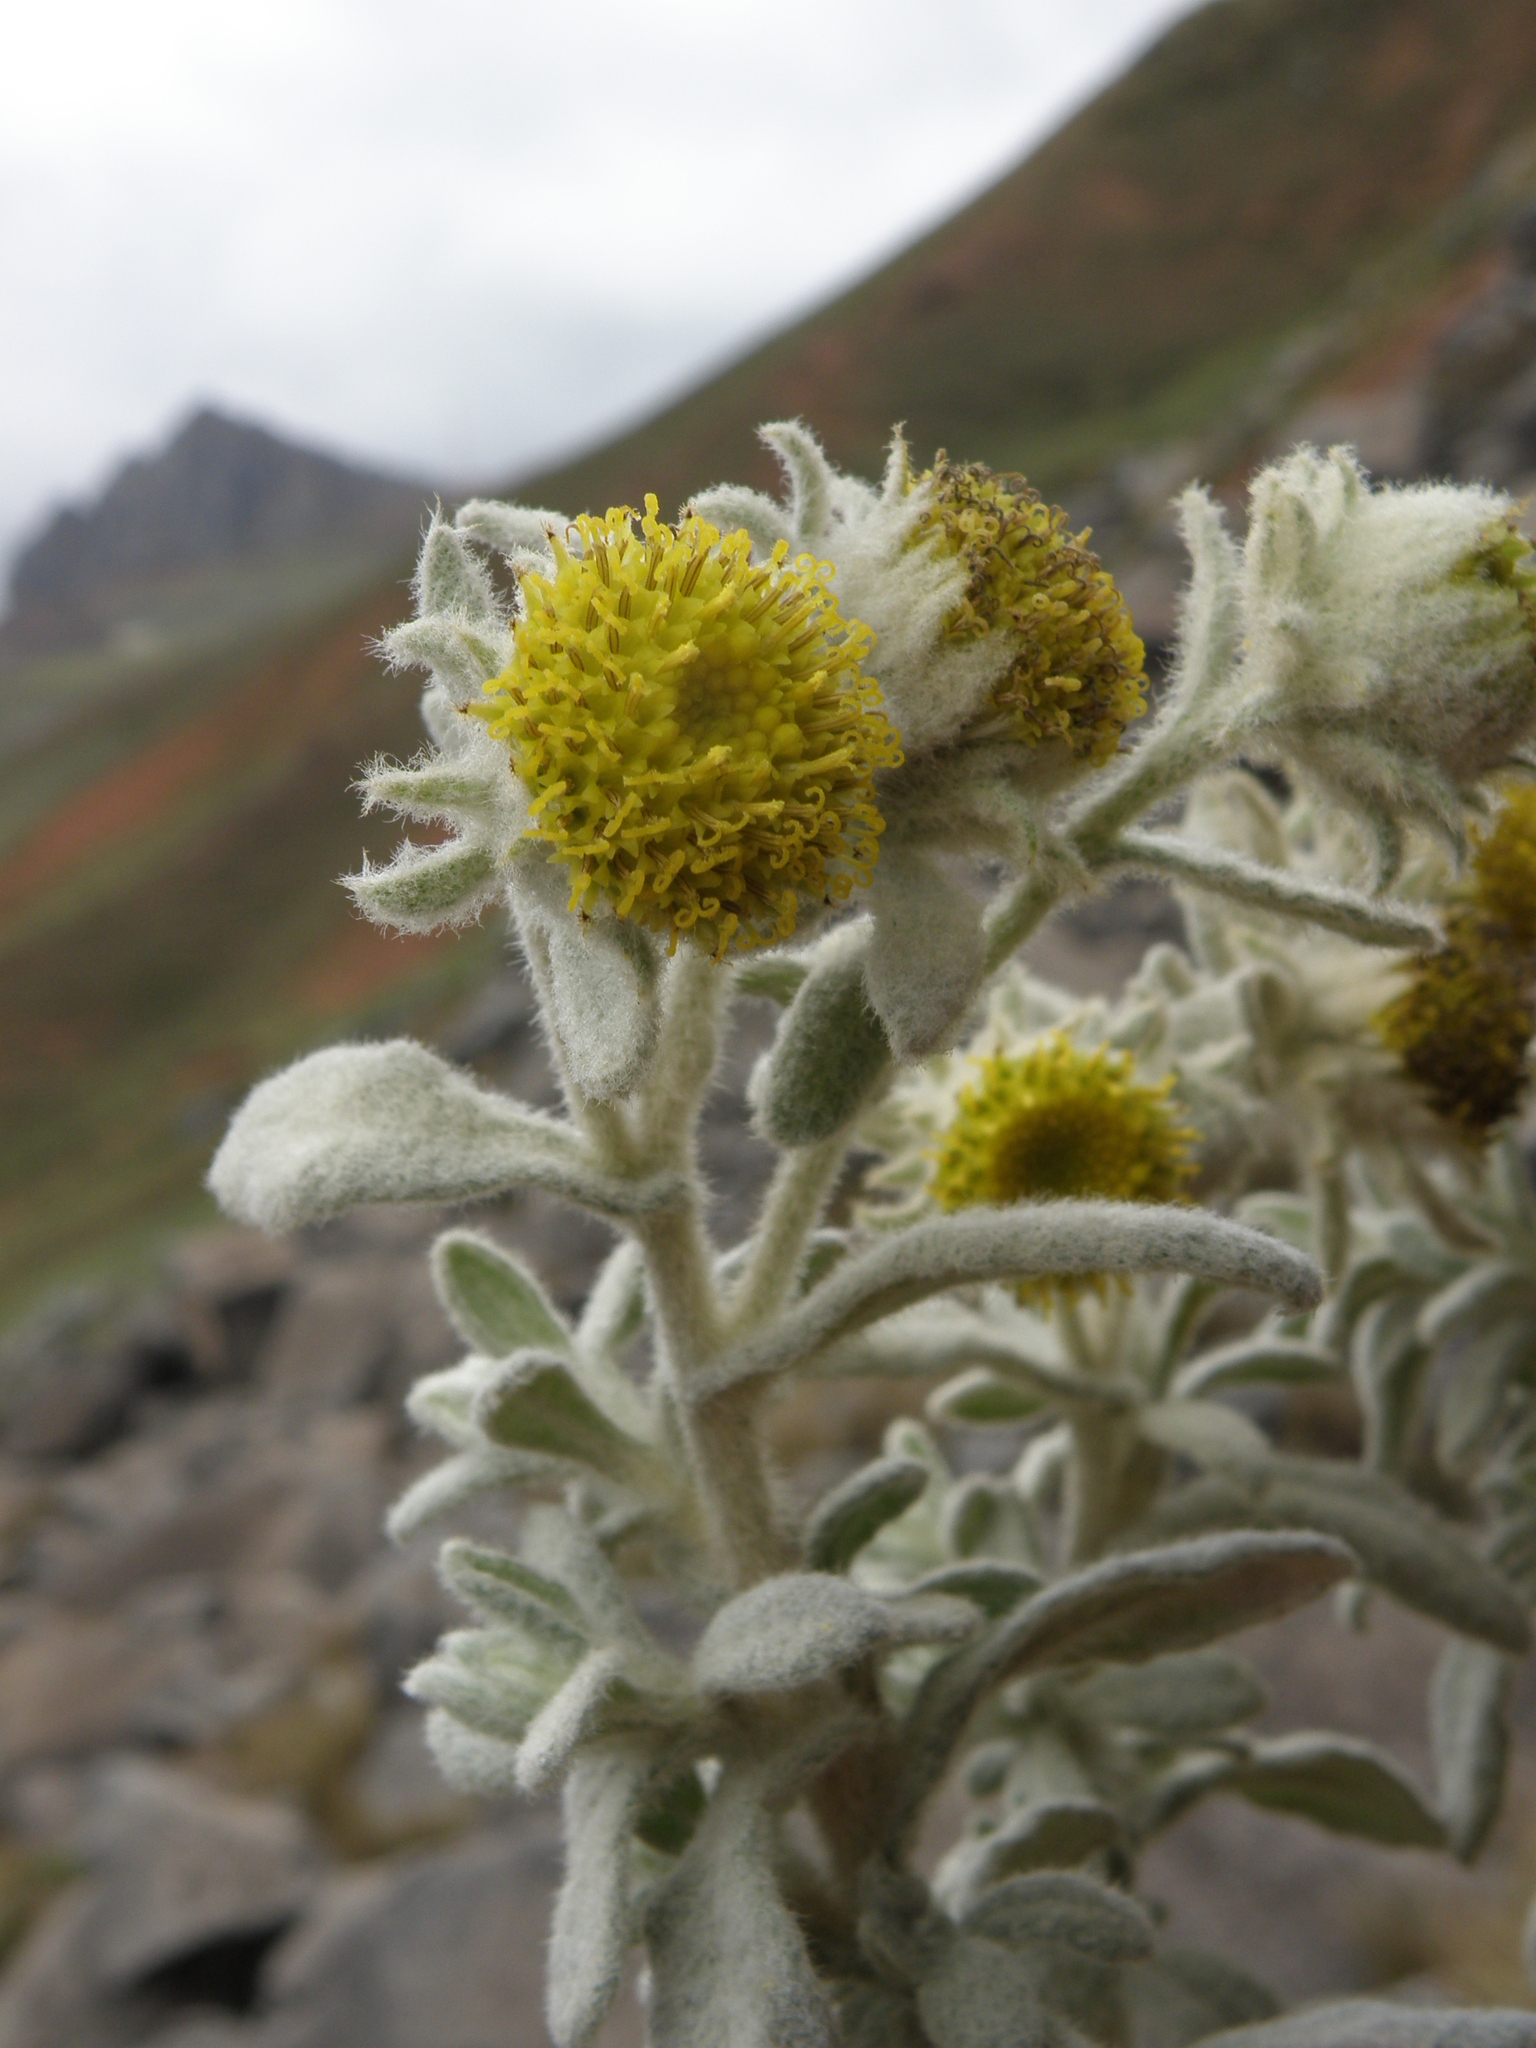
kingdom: Plantae
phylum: Tracheophyta
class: Magnoliopsida
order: Asterales
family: Asteraceae
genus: Pentacalia
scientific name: Pentacalia pavonii
